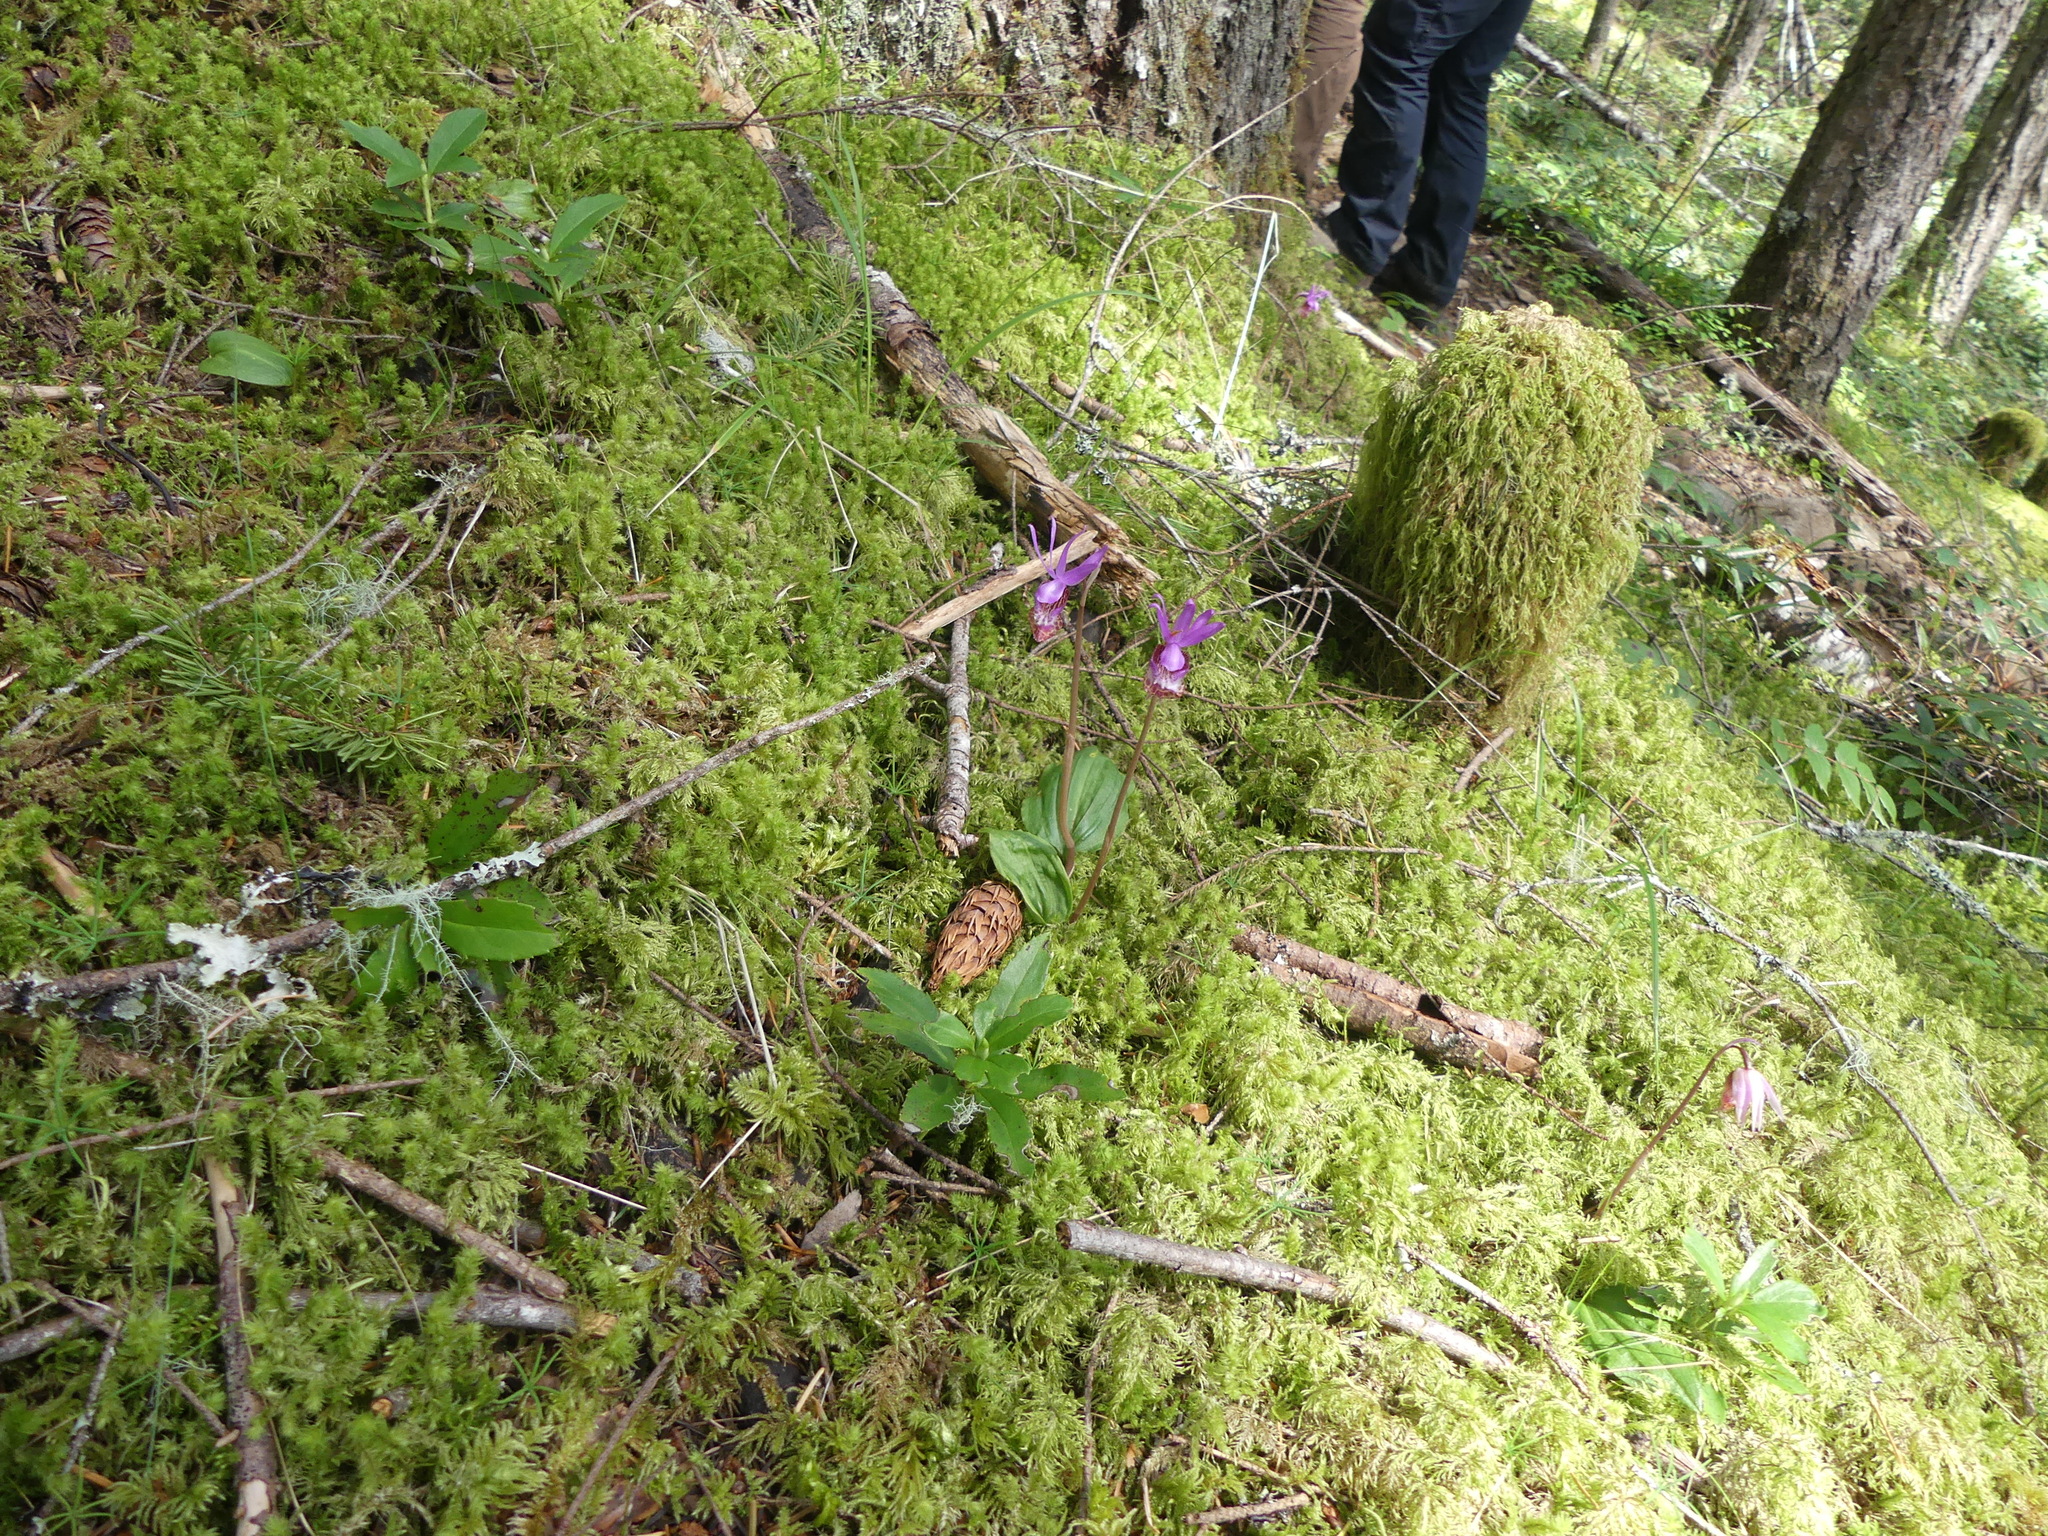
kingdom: Plantae
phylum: Tracheophyta
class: Liliopsida
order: Asparagales
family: Orchidaceae
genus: Calypso
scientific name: Calypso bulbosa
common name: Calypso
